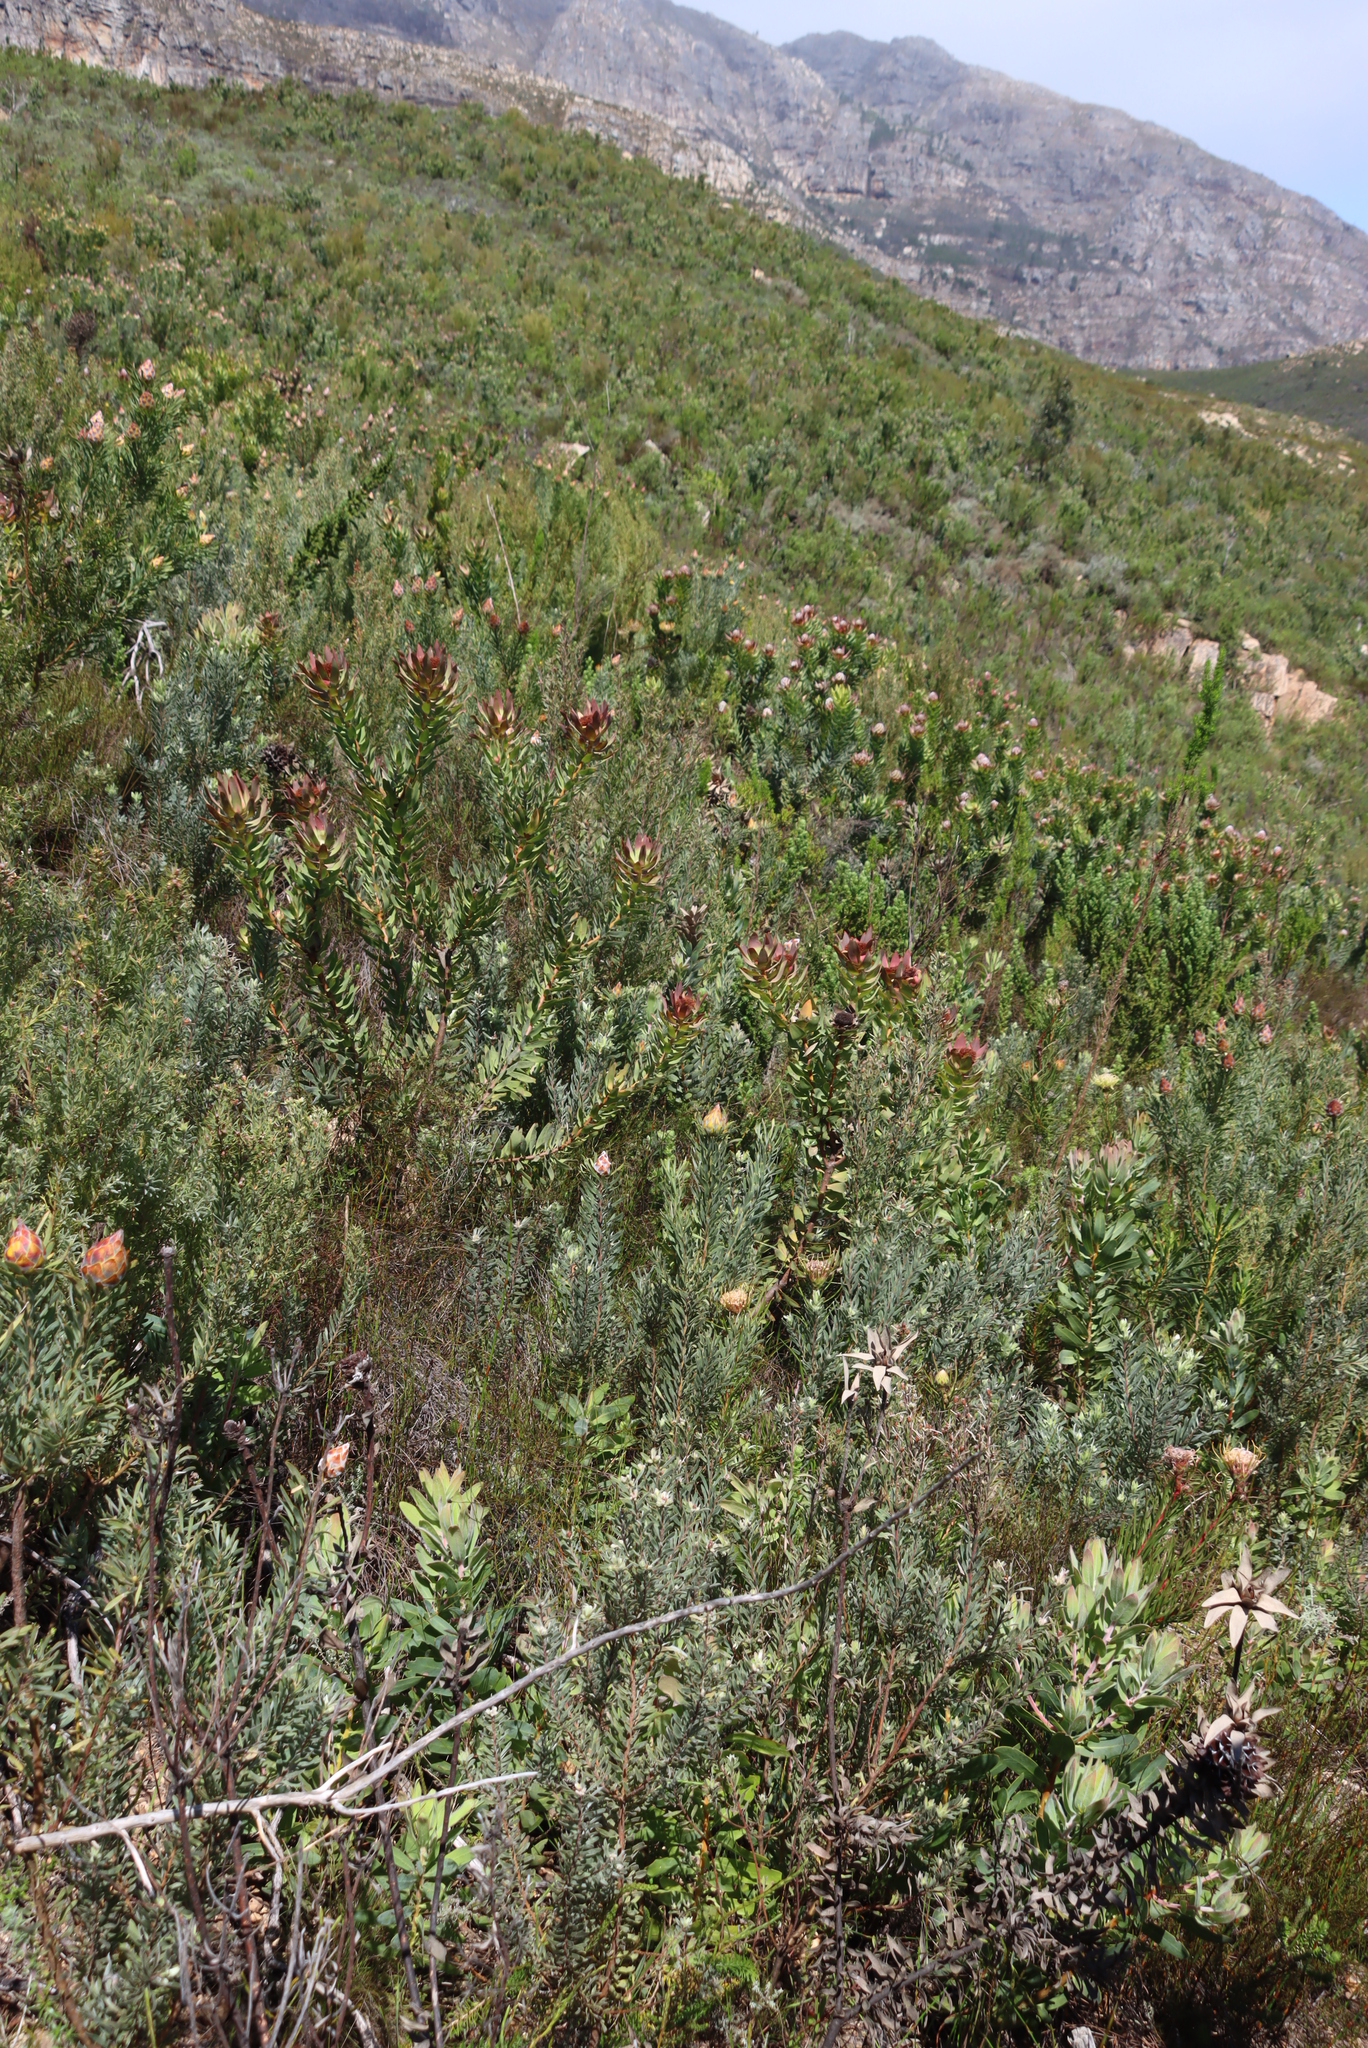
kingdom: Plantae
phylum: Tracheophyta
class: Magnoliopsida
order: Proteales
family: Proteaceae
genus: Leucadendron
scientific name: Leucadendron daphnoides
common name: Du toit's kloof conebush
